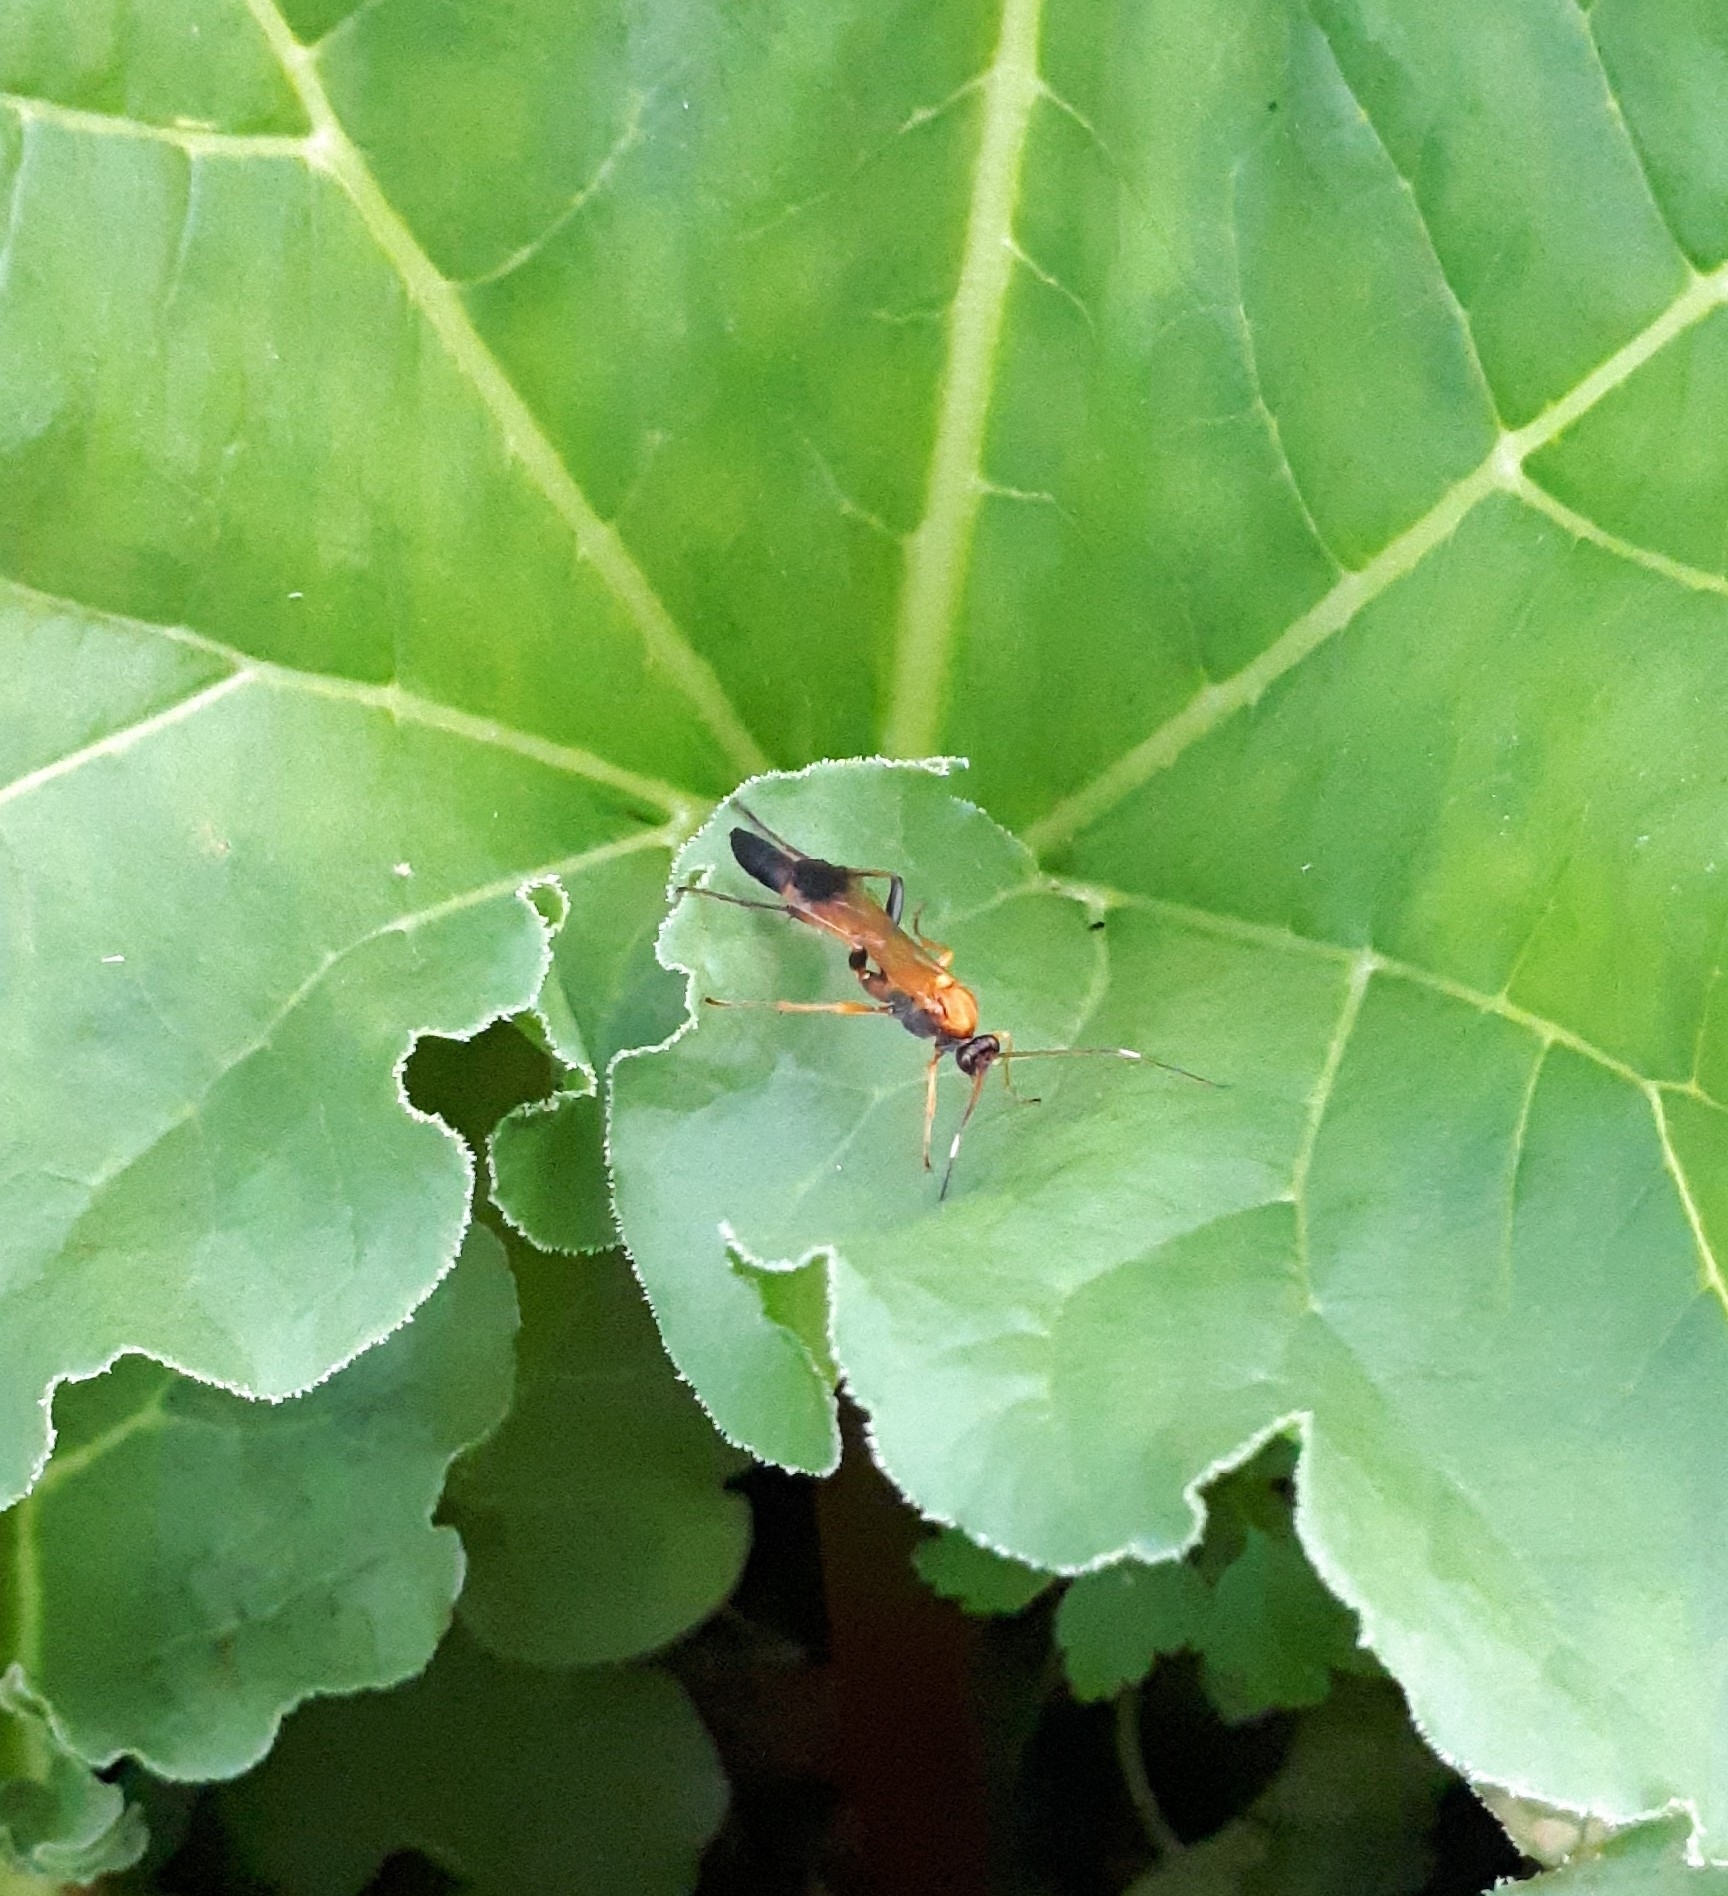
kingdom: Animalia
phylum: Arthropoda
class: Insecta
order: Hymenoptera
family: Ichneumonidae
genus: Ctenochares
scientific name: Ctenochares bicolorus
